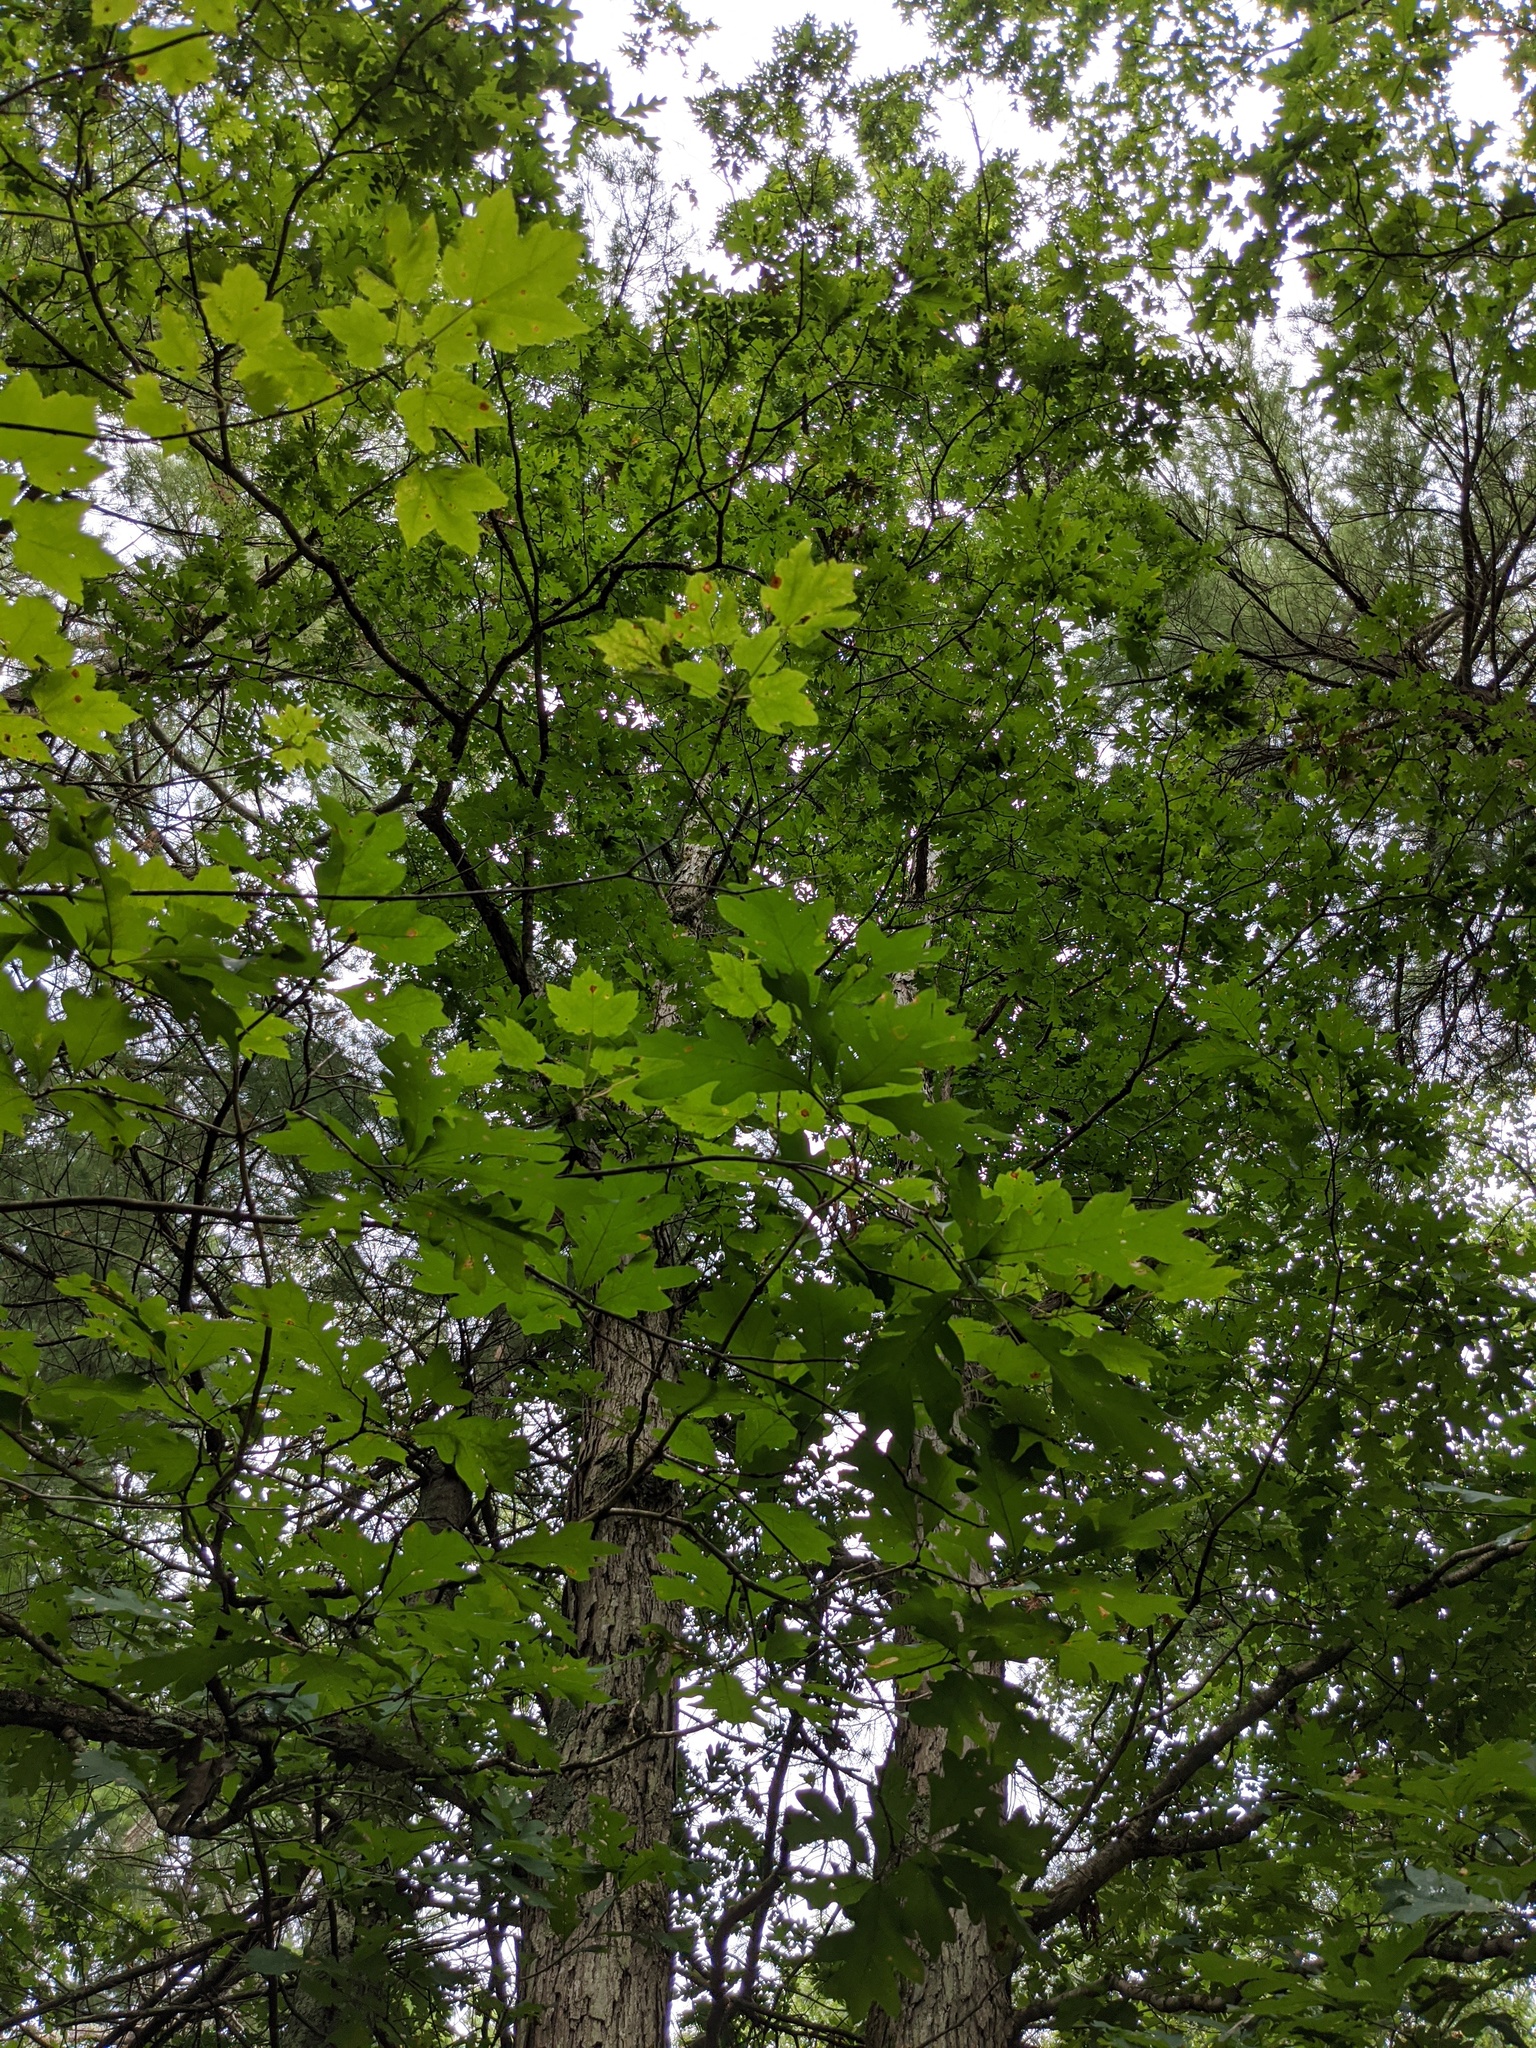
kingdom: Plantae
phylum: Tracheophyta
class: Magnoliopsida
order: Fagales
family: Fagaceae
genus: Quercus
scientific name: Quercus alba
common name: White oak
